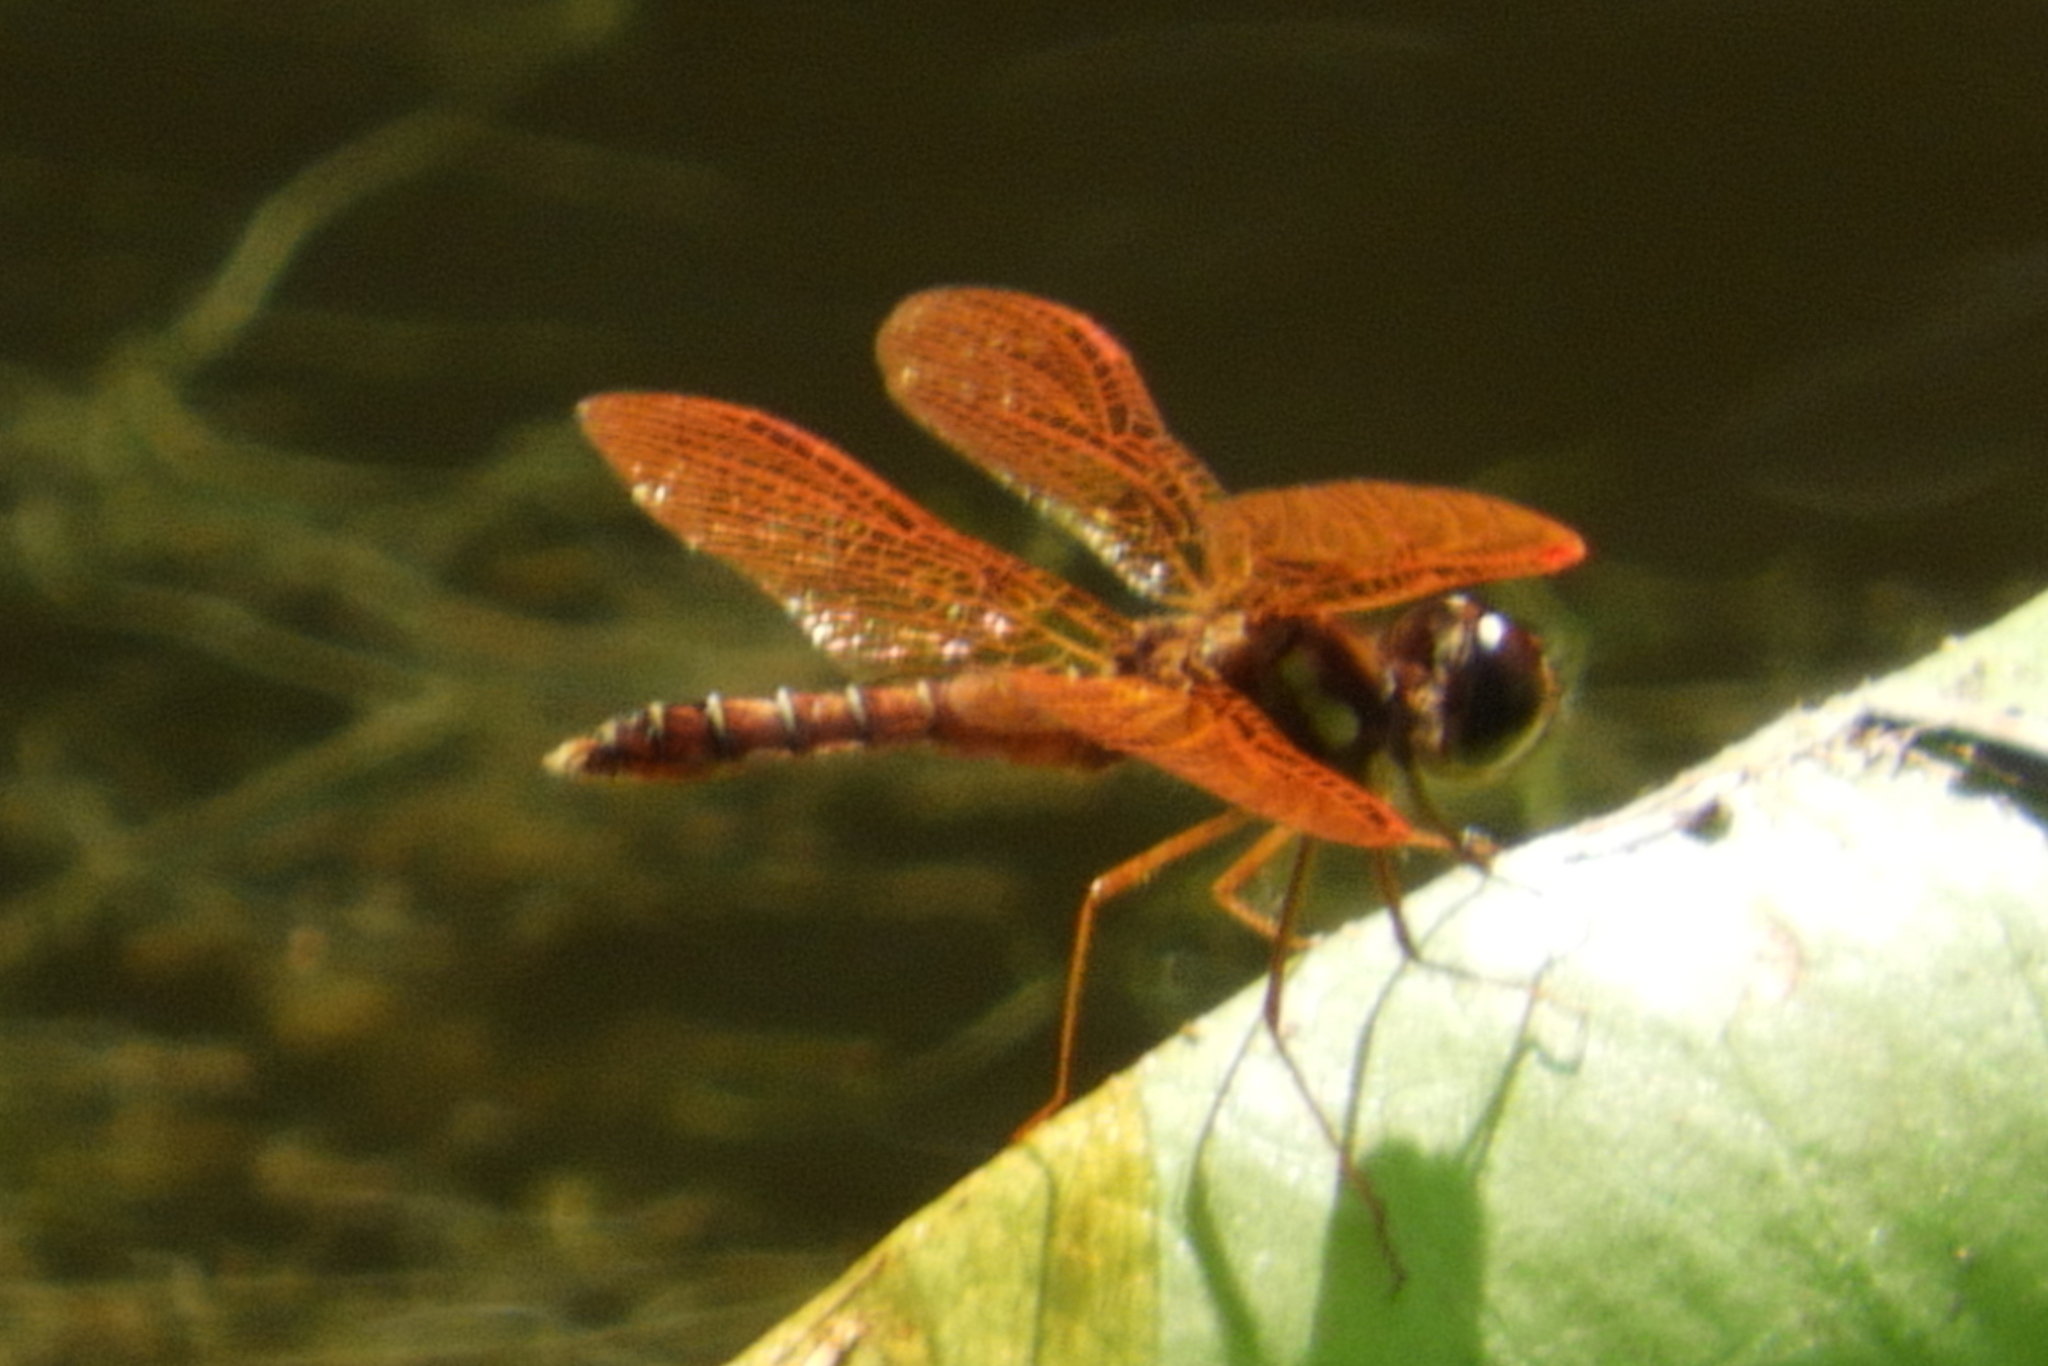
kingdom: Animalia
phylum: Arthropoda
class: Insecta
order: Odonata
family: Libellulidae
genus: Perithemis
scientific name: Perithemis tenera
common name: Eastern amberwing
